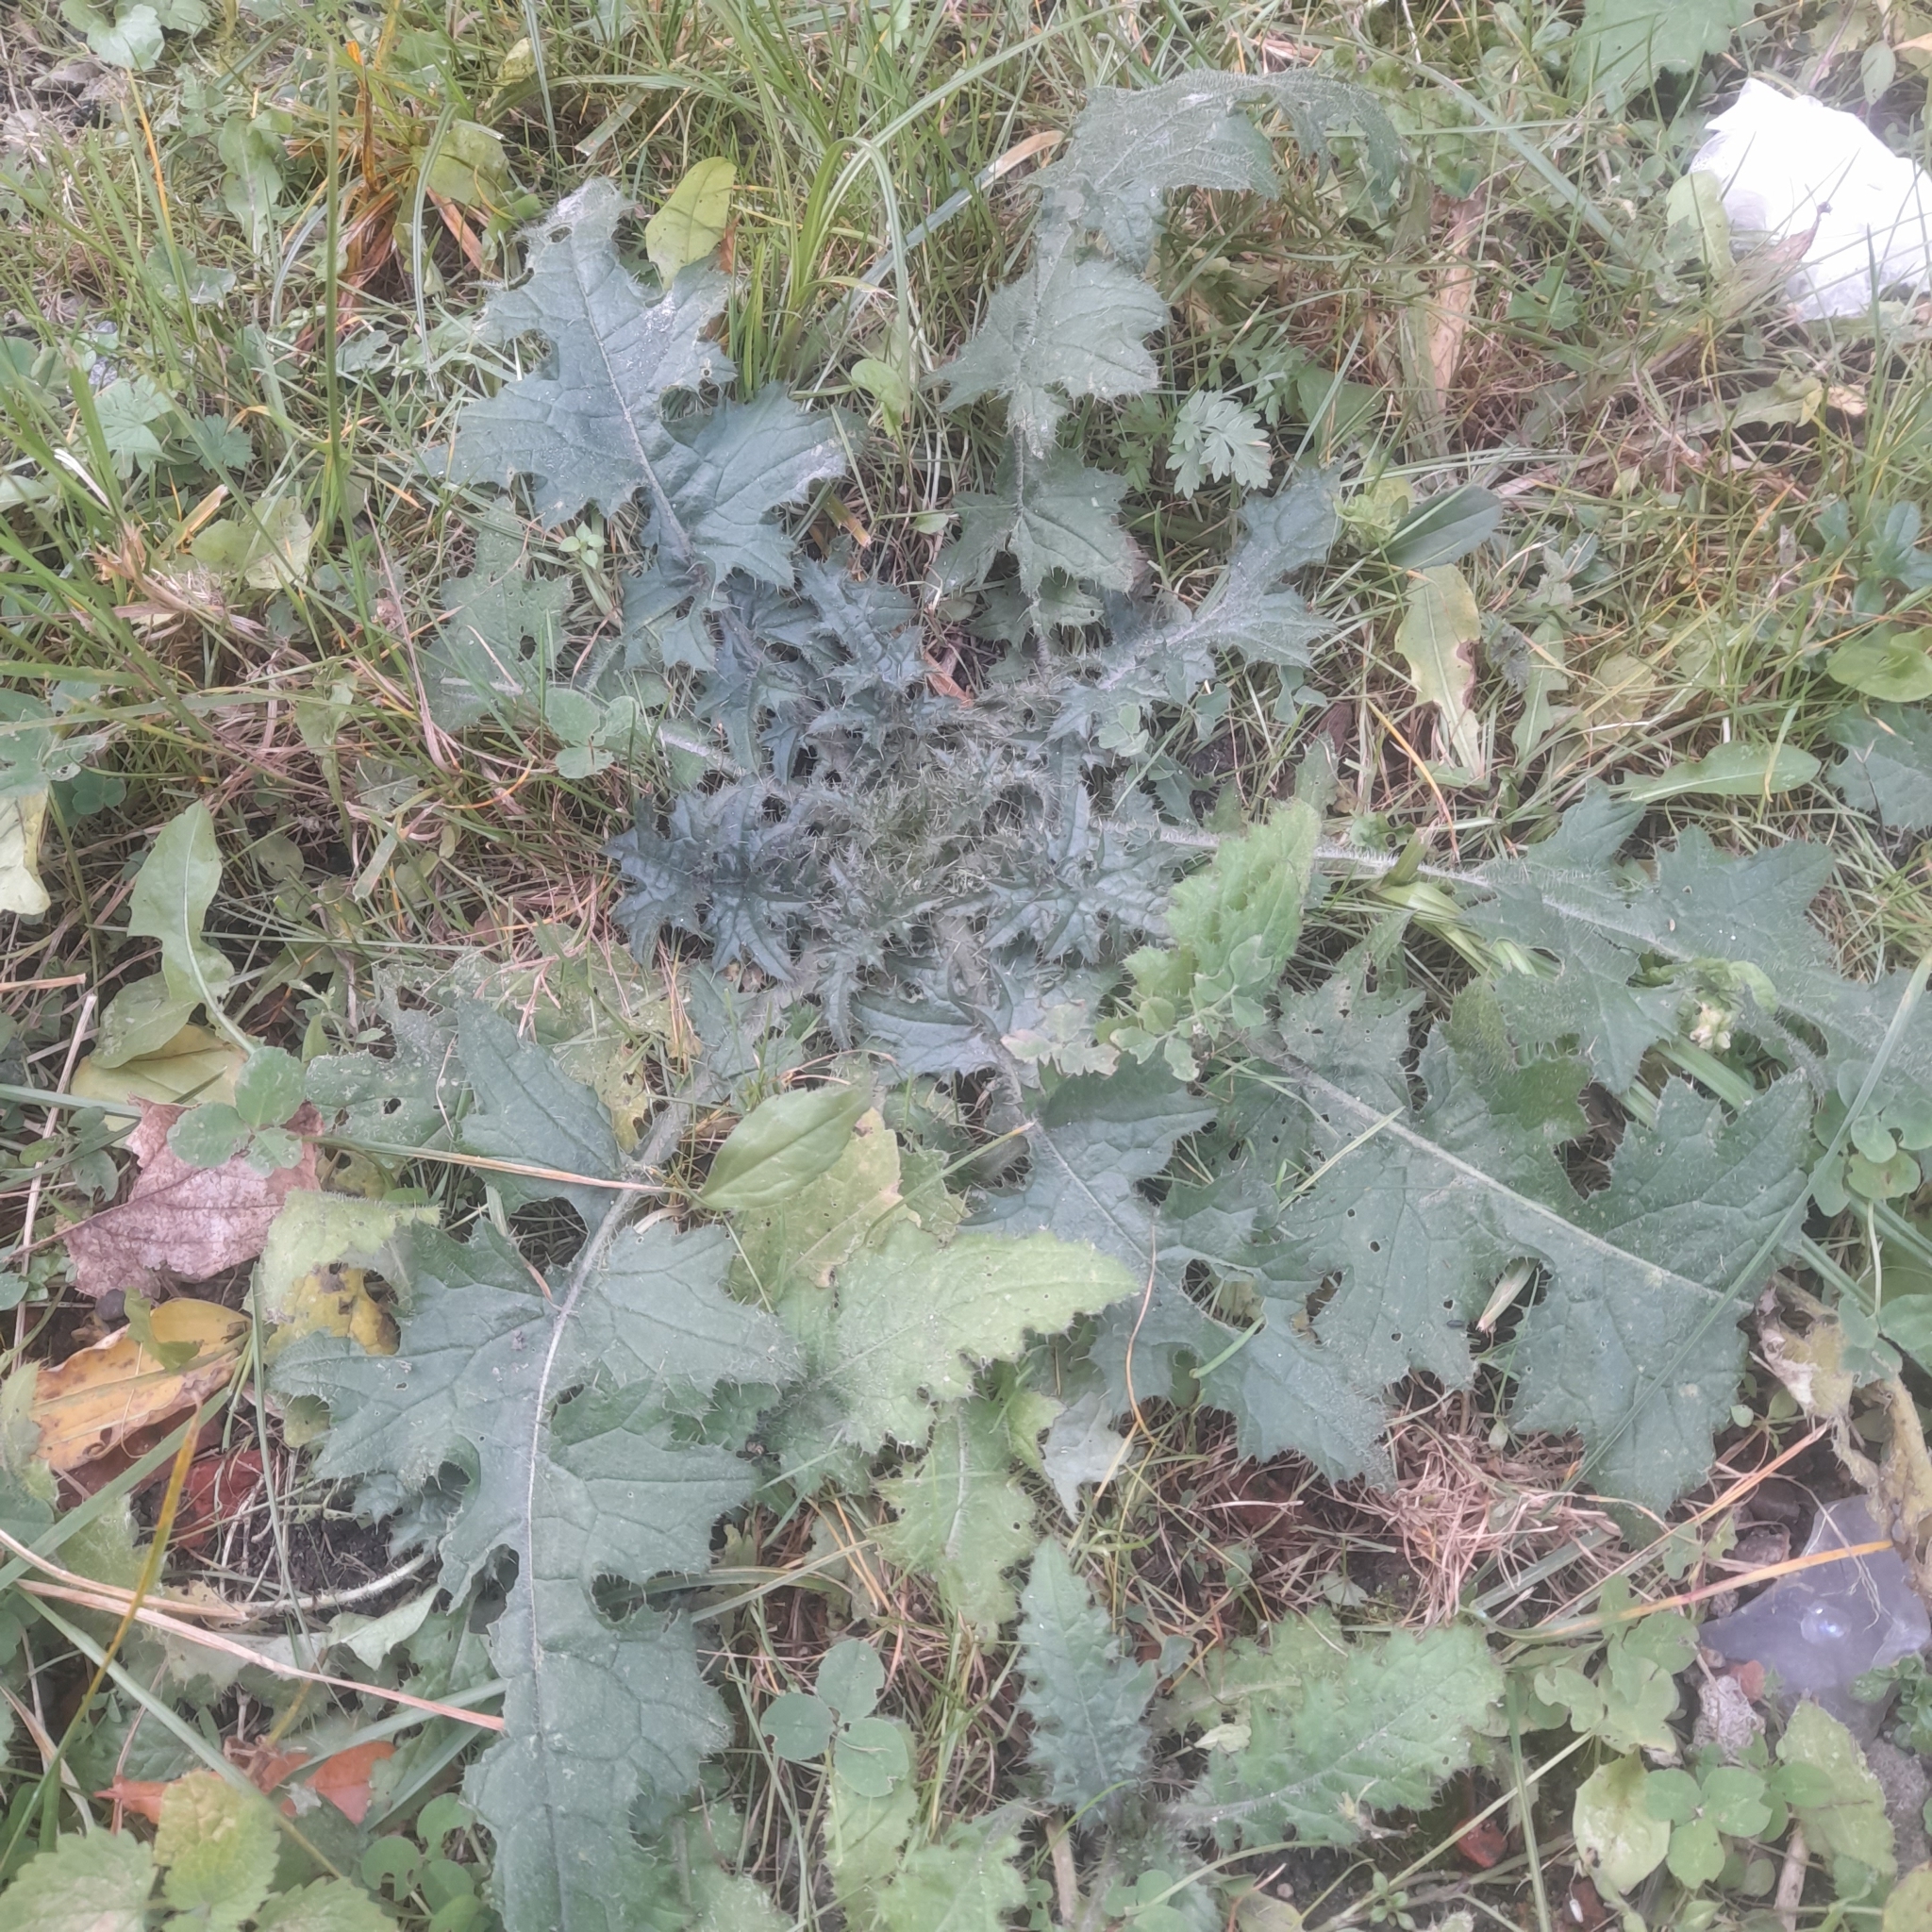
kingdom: Plantae
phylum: Tracheophyta
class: Magnoliopsida
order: Asterales
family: Asteraceae
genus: Carduus
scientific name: Carduus crispus
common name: Welted thistle
